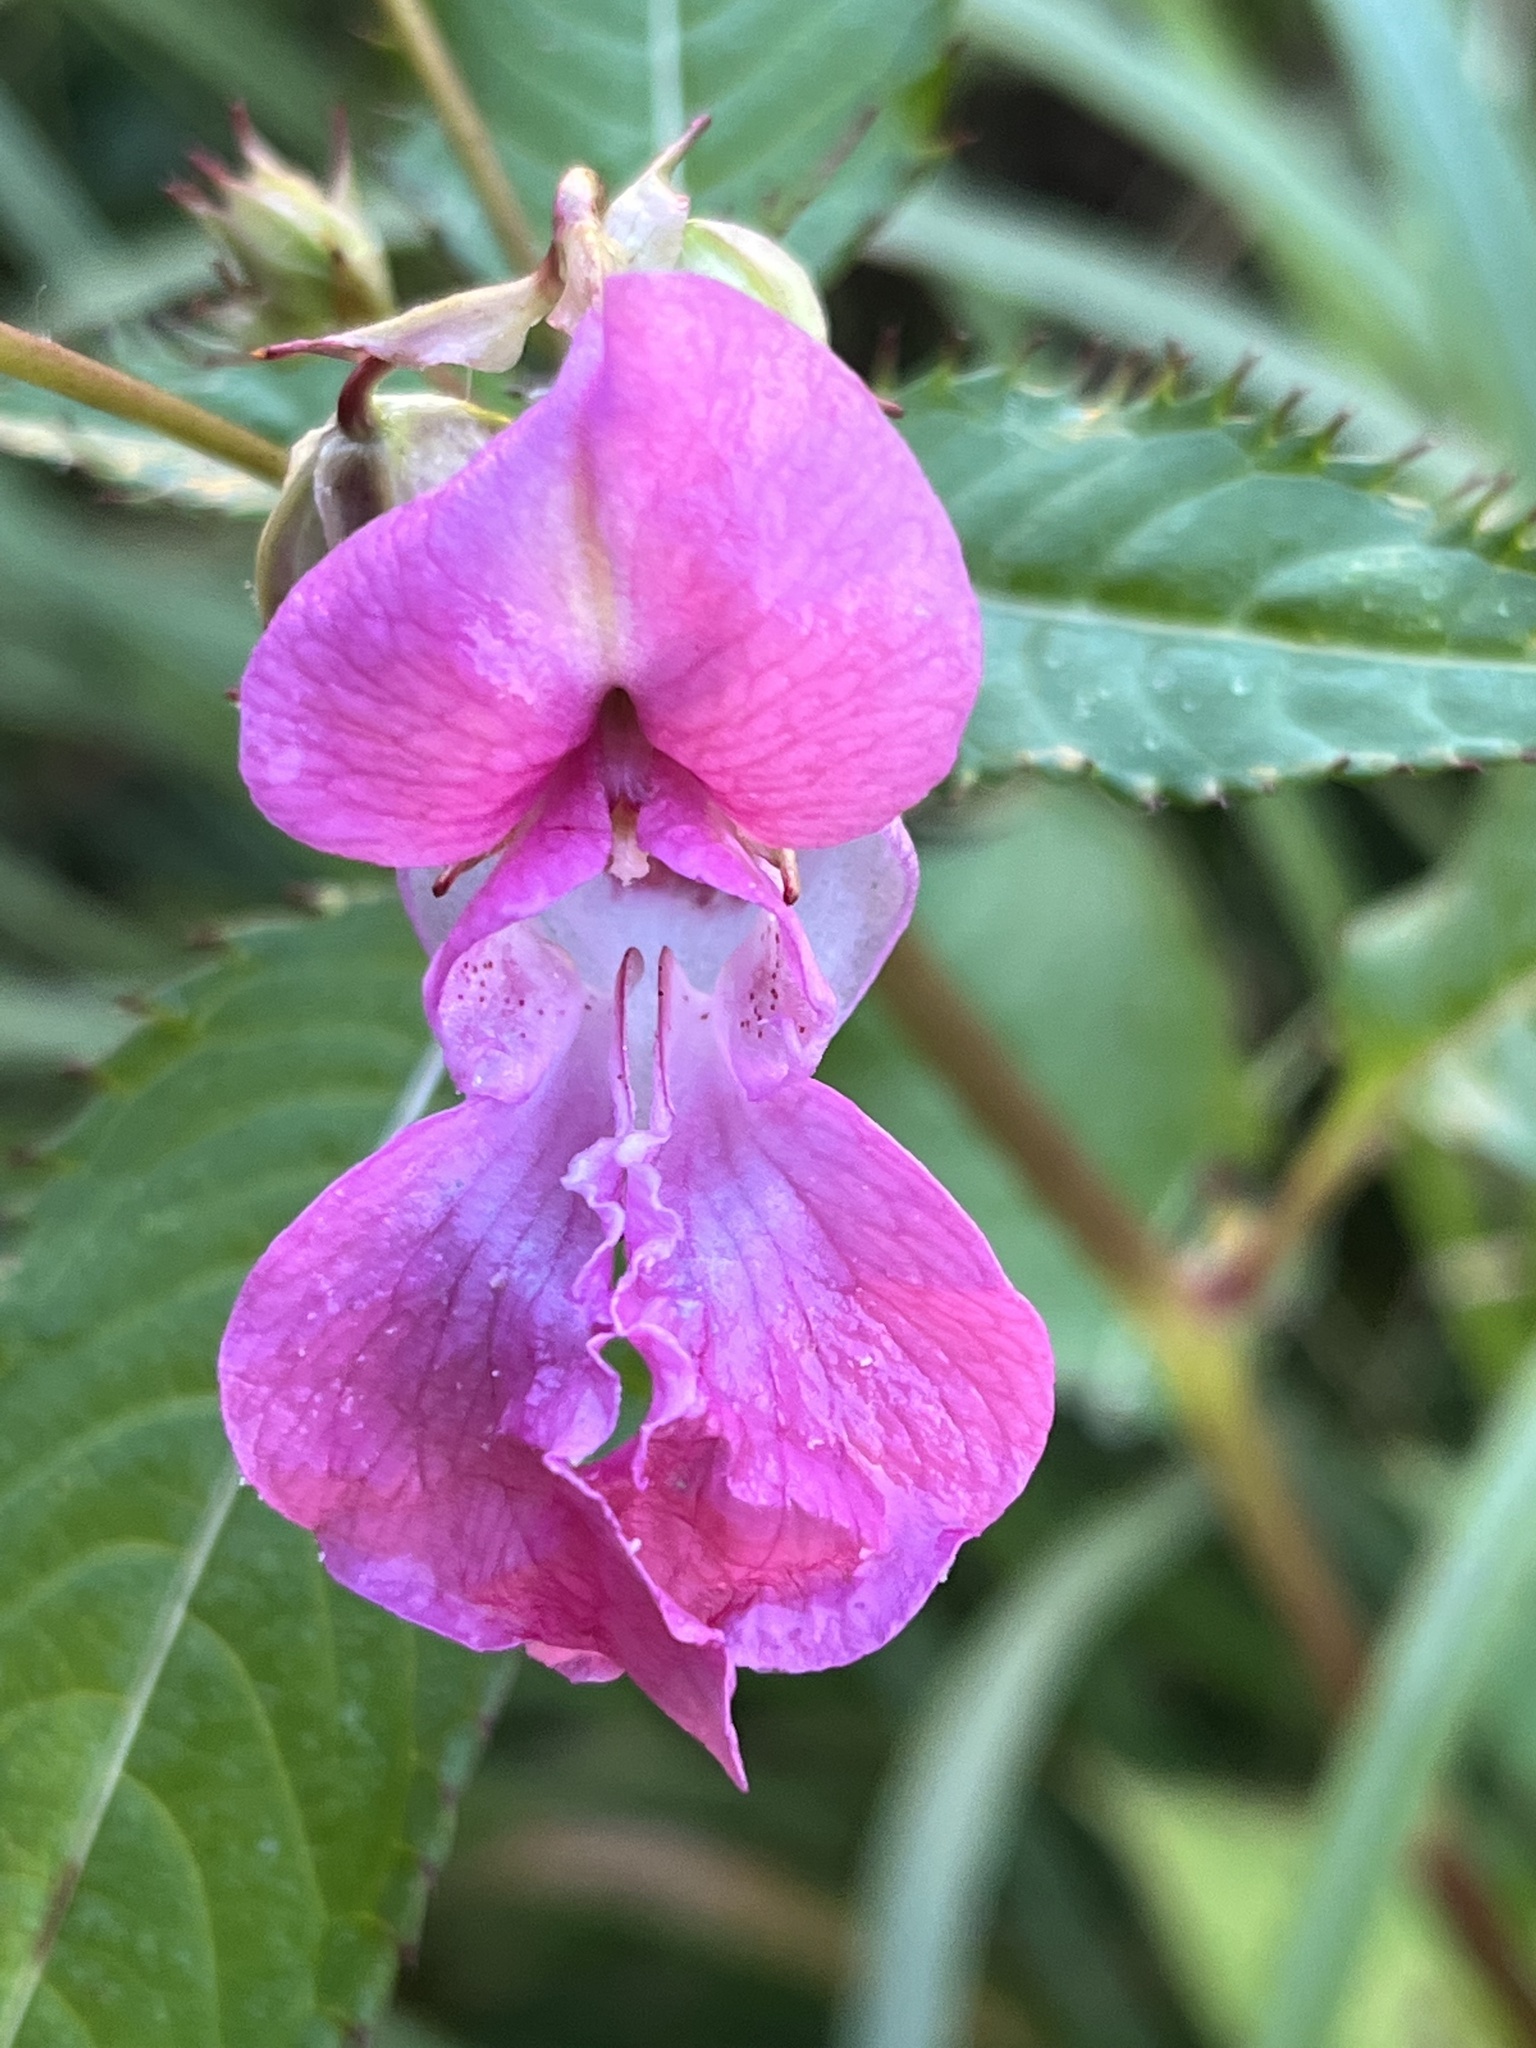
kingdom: Plantae
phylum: Tracheophyta
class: Magnoliopsida
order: Ericales
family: Balsaminaceae
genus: Impatiens
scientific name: Impatiens glandulifera
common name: Himalayan balsam
